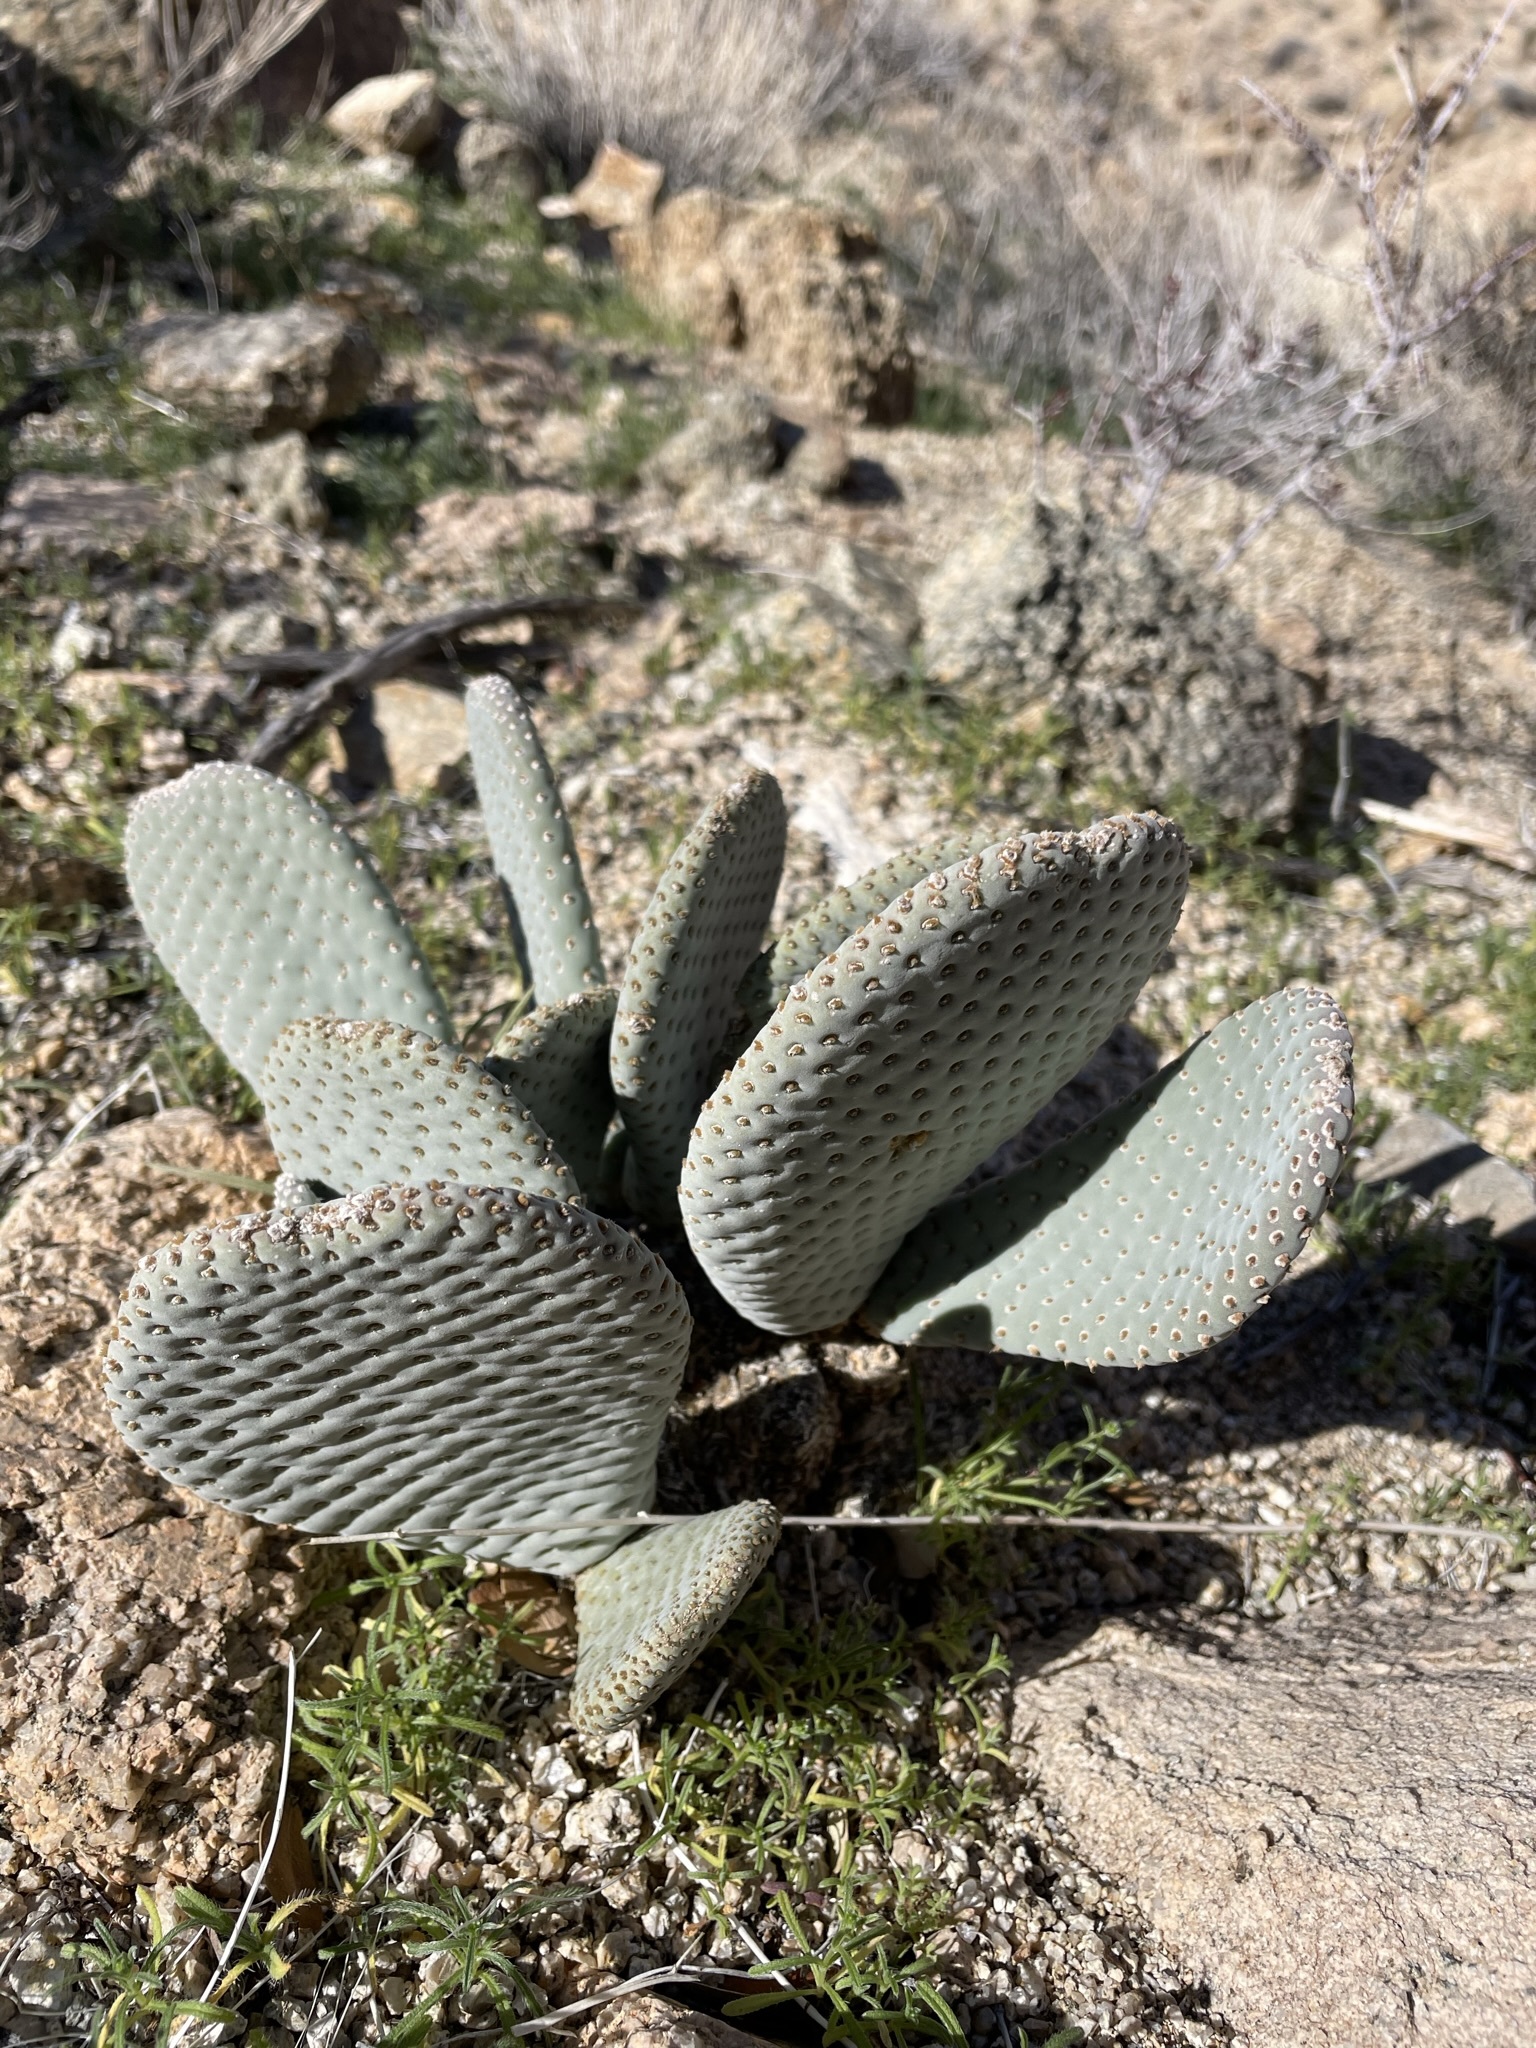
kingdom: Plantae
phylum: Tracheophyta
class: Magnoliopsida
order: Caryophyllales
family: Cactaceae
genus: Opuntia
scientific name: Opuntia basilaris
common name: Beavertail prickly-pear
